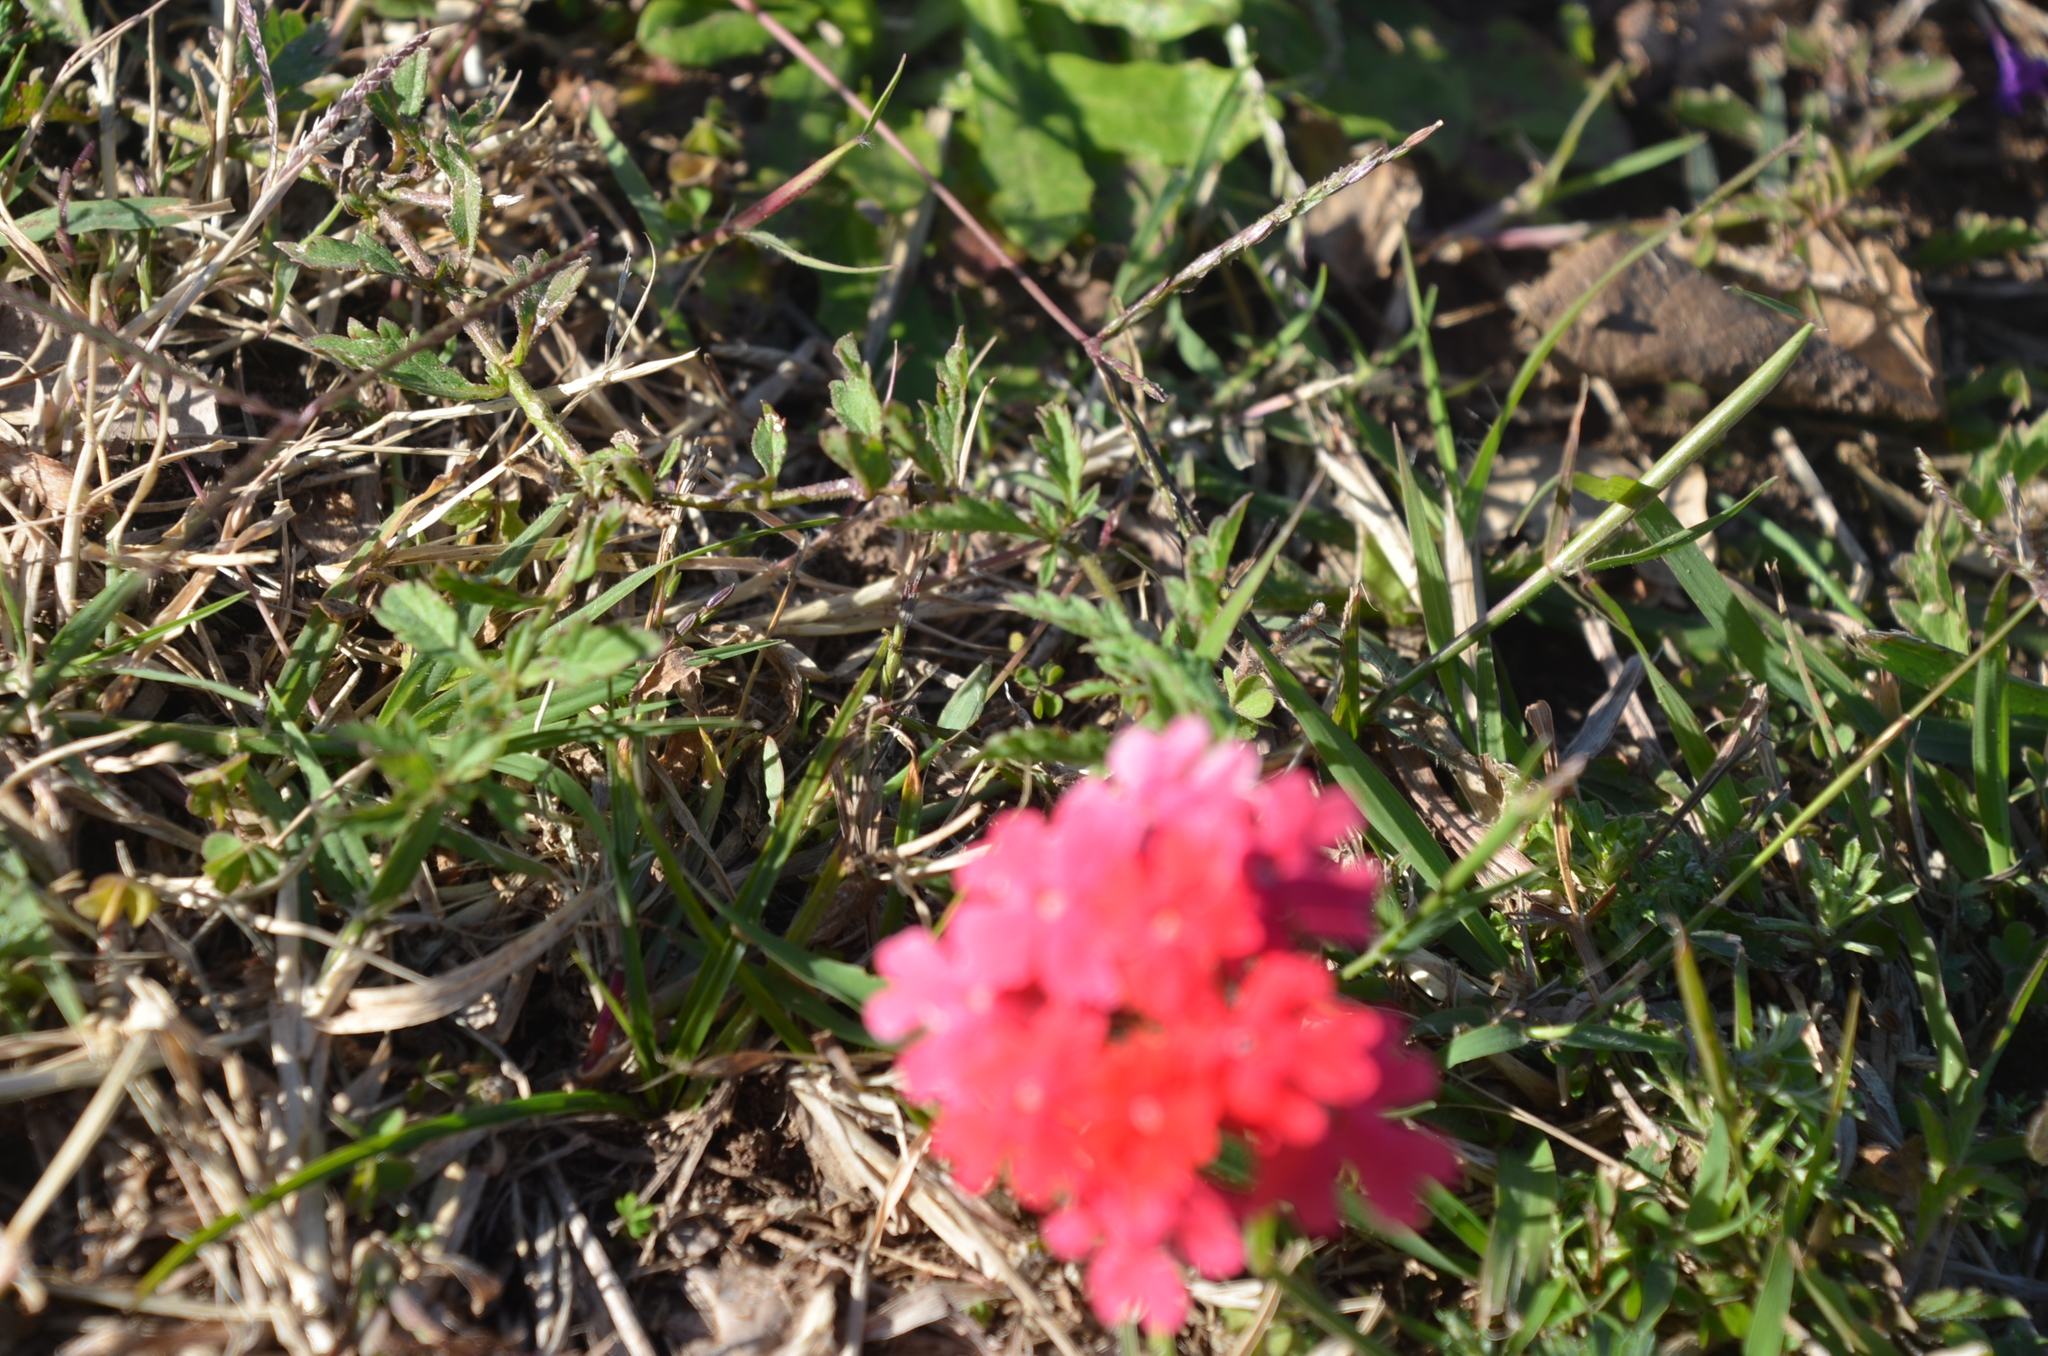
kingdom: Plantae
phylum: Tracheophyta
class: Magnoliopsida
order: Lamiales
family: Verbenaceae
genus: Verbena
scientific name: Verbena peruviana
